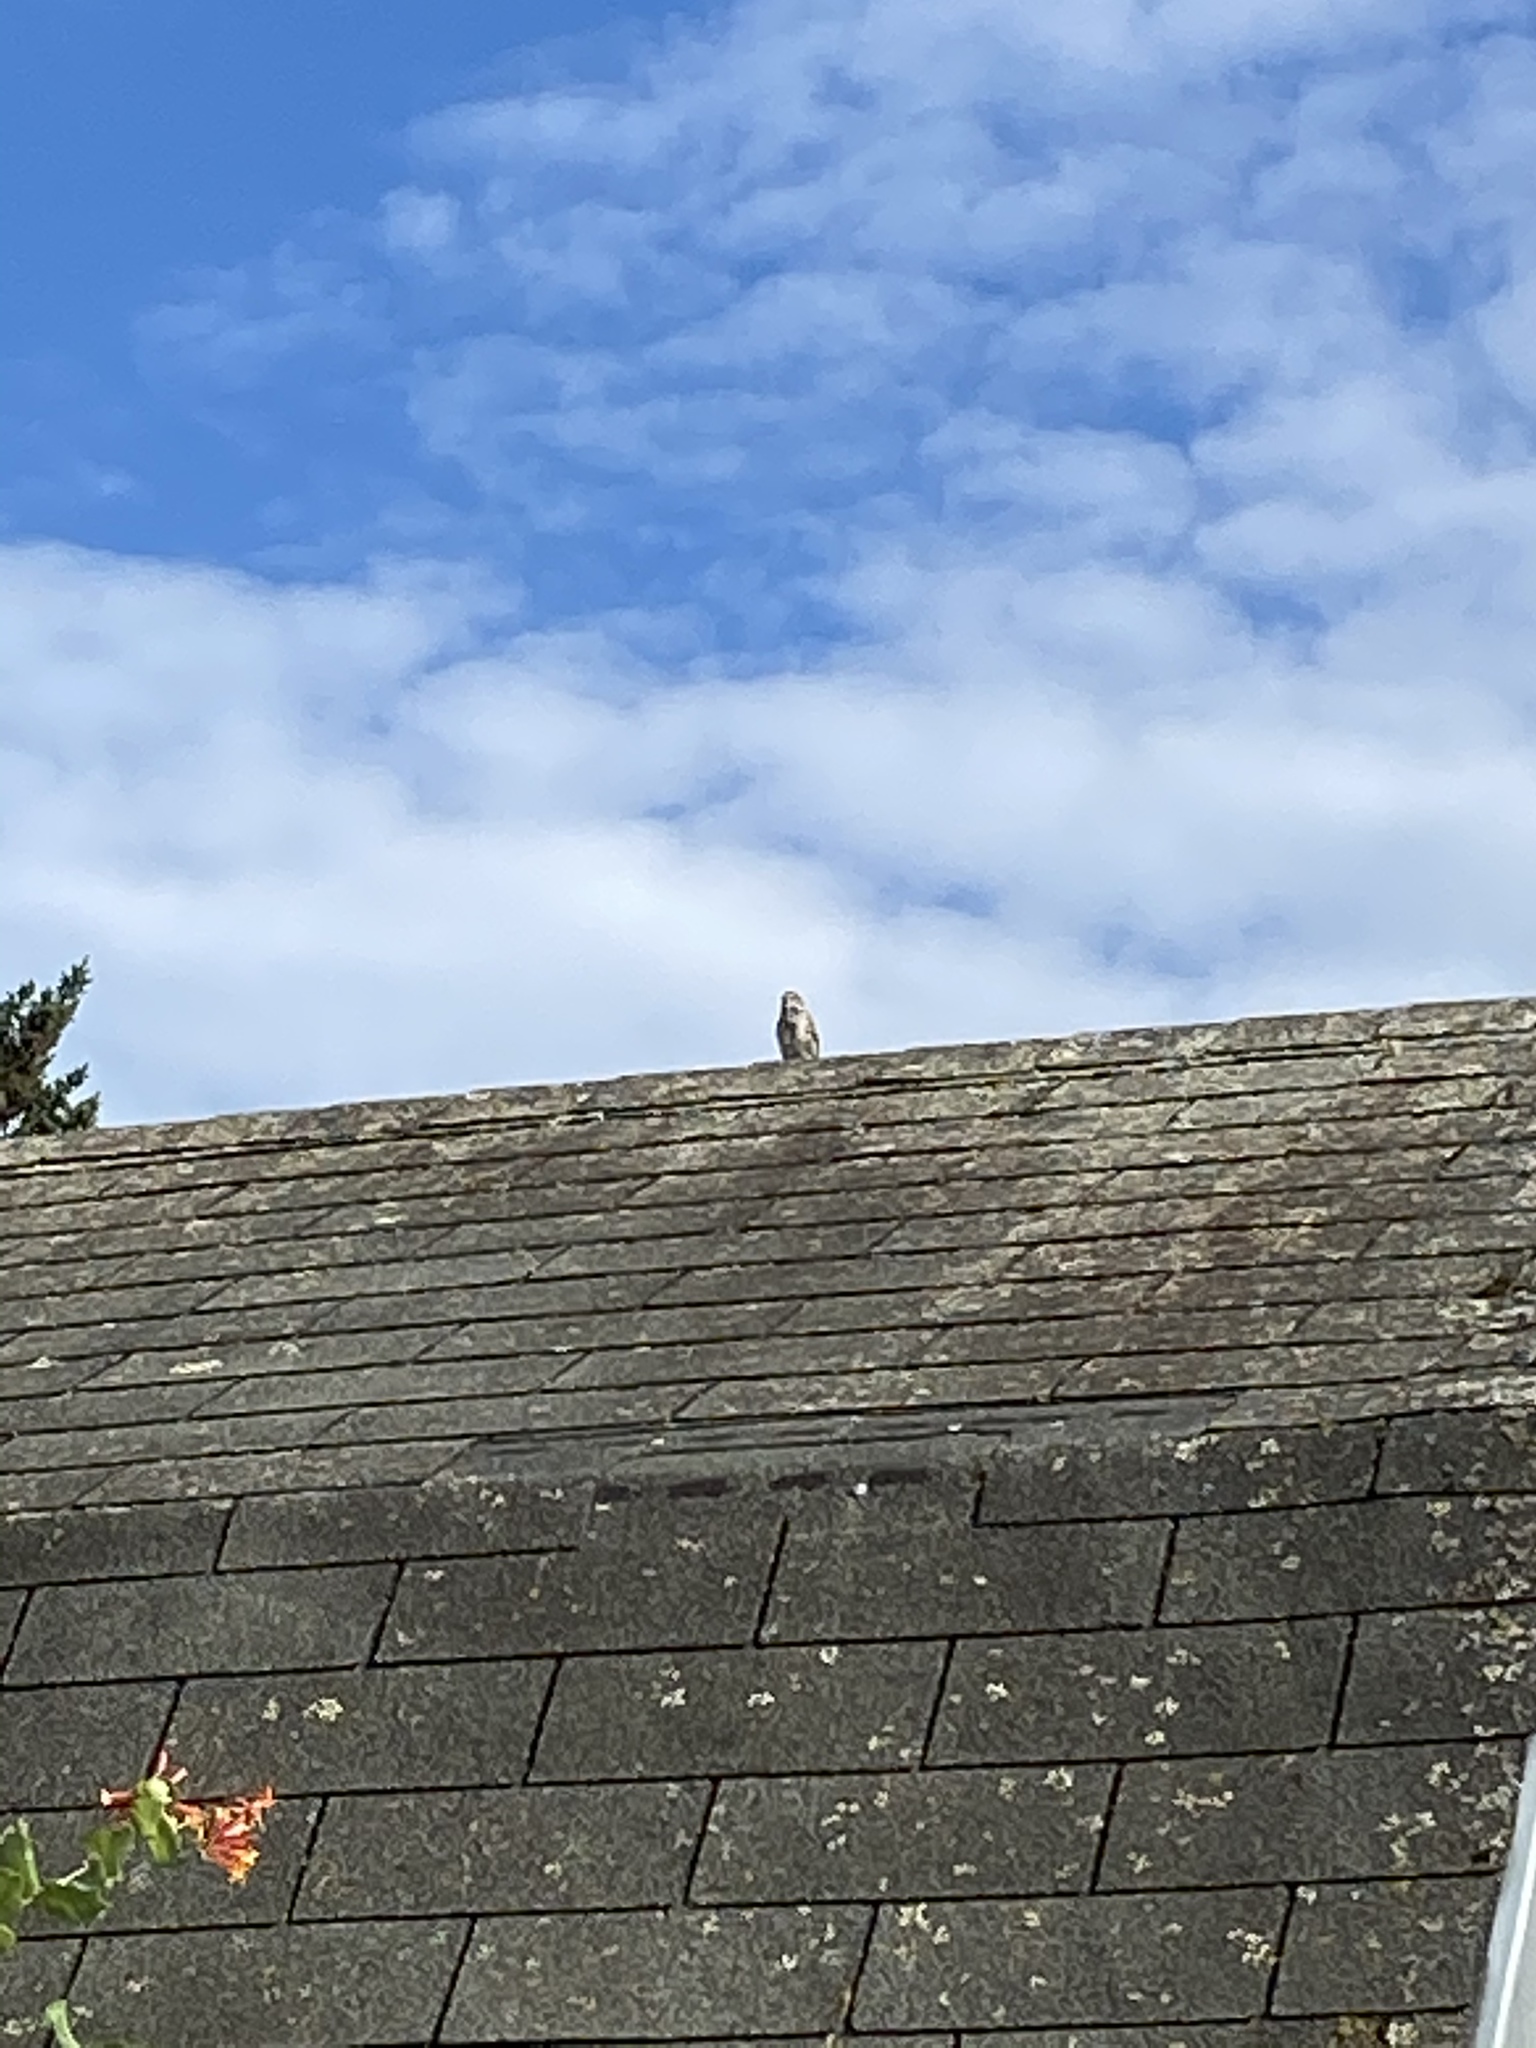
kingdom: Animalia
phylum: Chordata
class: Aves
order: Passeriformes
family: Passerellidae
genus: Melospiza
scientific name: Melospiza melodia
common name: Song sparrow
